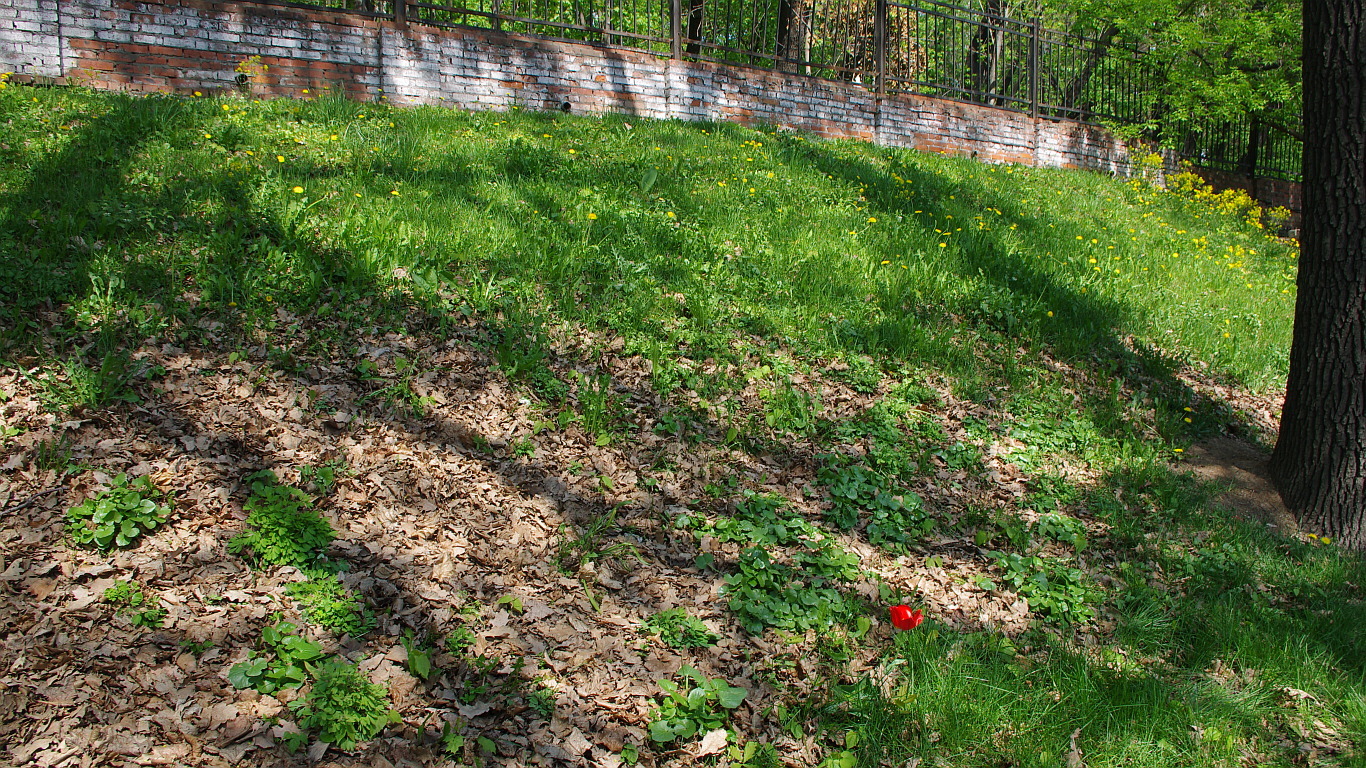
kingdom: Plantae
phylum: Tracheophyta
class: Liliopsida
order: Liliales
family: Liliaceae
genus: Tulipa
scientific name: Tulipa gesneriana
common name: Garden tulip
